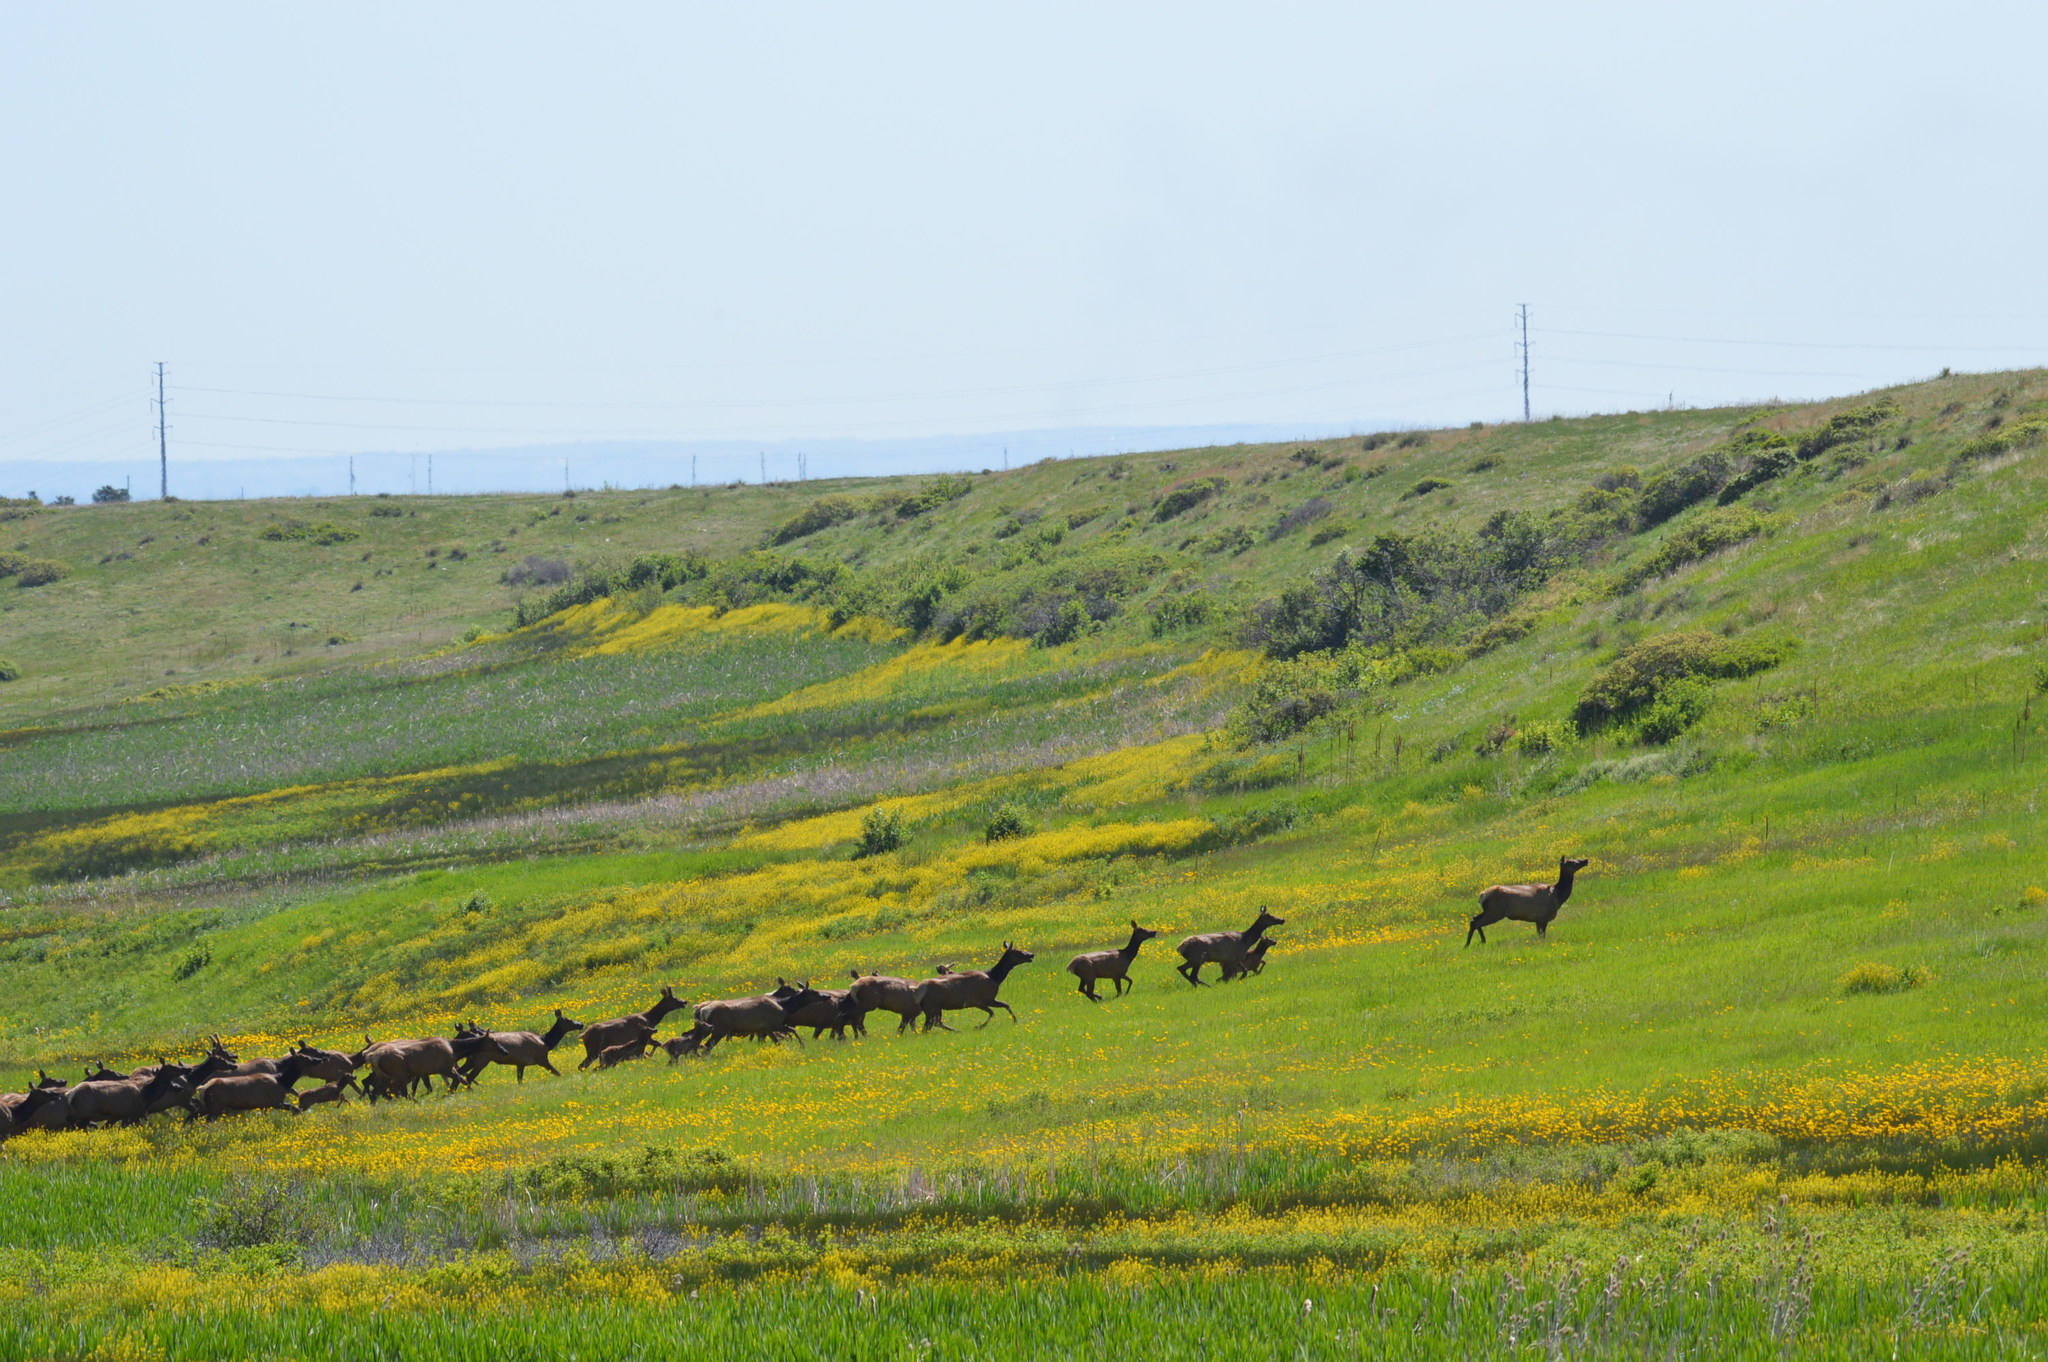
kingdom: Animalia
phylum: Chordata
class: Mammalia
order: Artiodactyla
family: Cervidae
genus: Cervus
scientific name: Cervus elaphus
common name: Red deer
